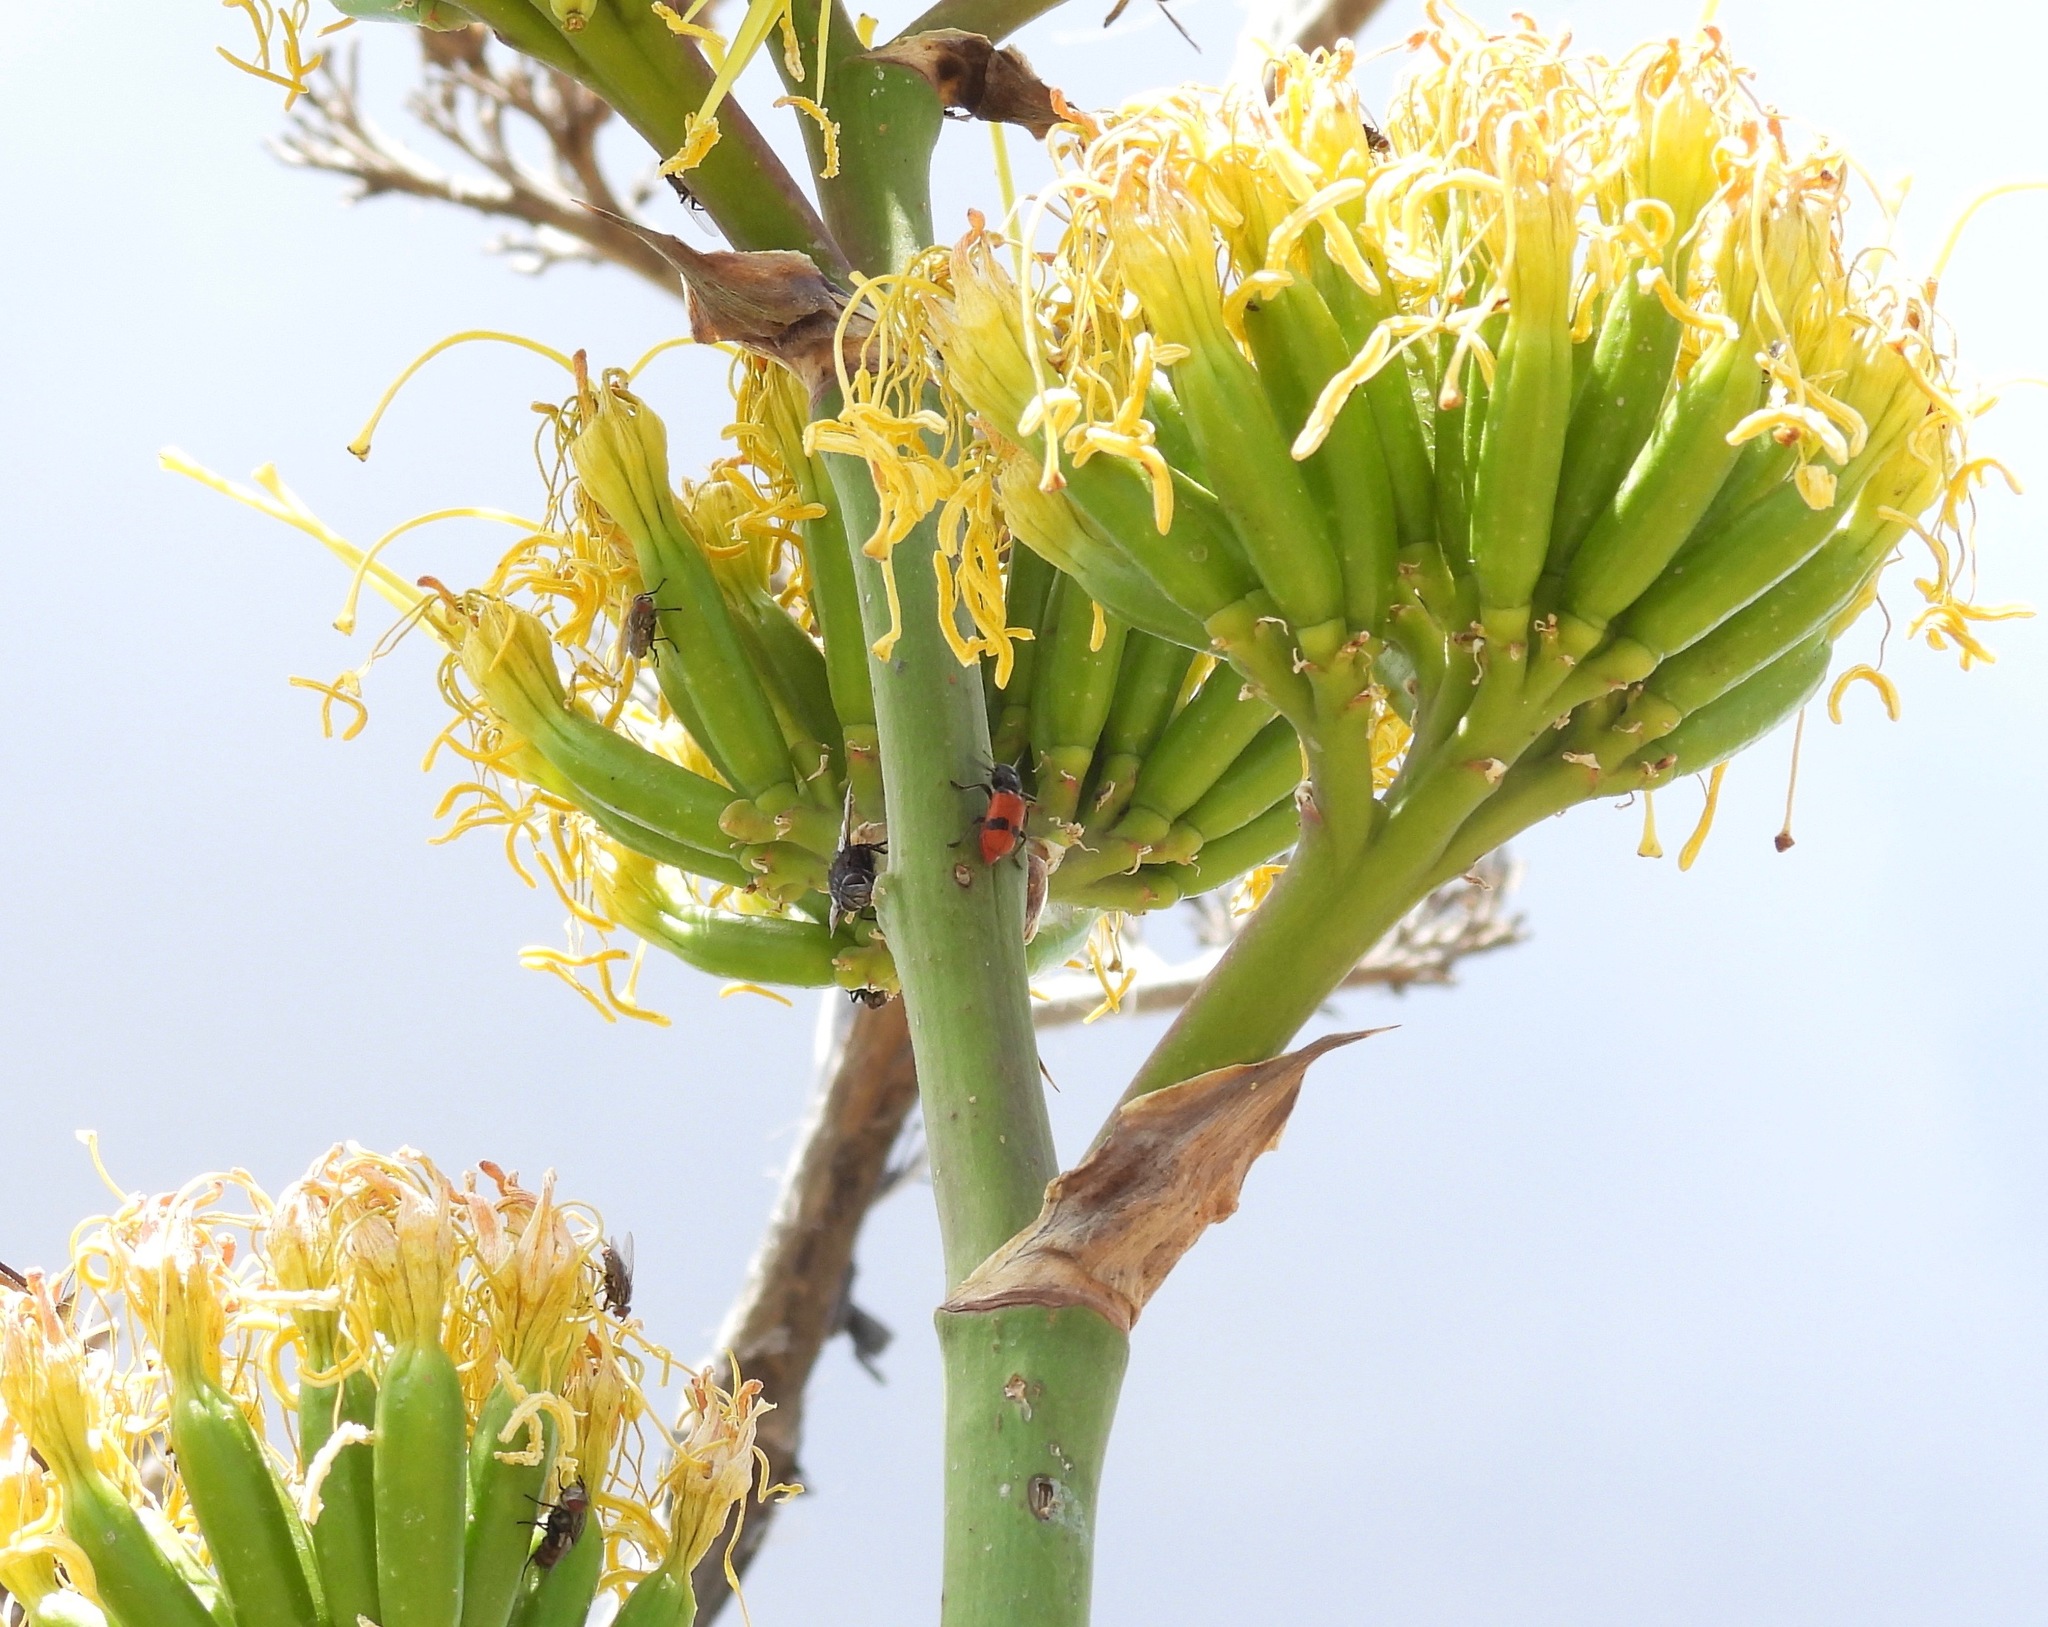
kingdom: Animalia
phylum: Arthropoda
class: Insecta
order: Coleoptera
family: Cleridae
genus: Enoclerus
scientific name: Enoclerus
